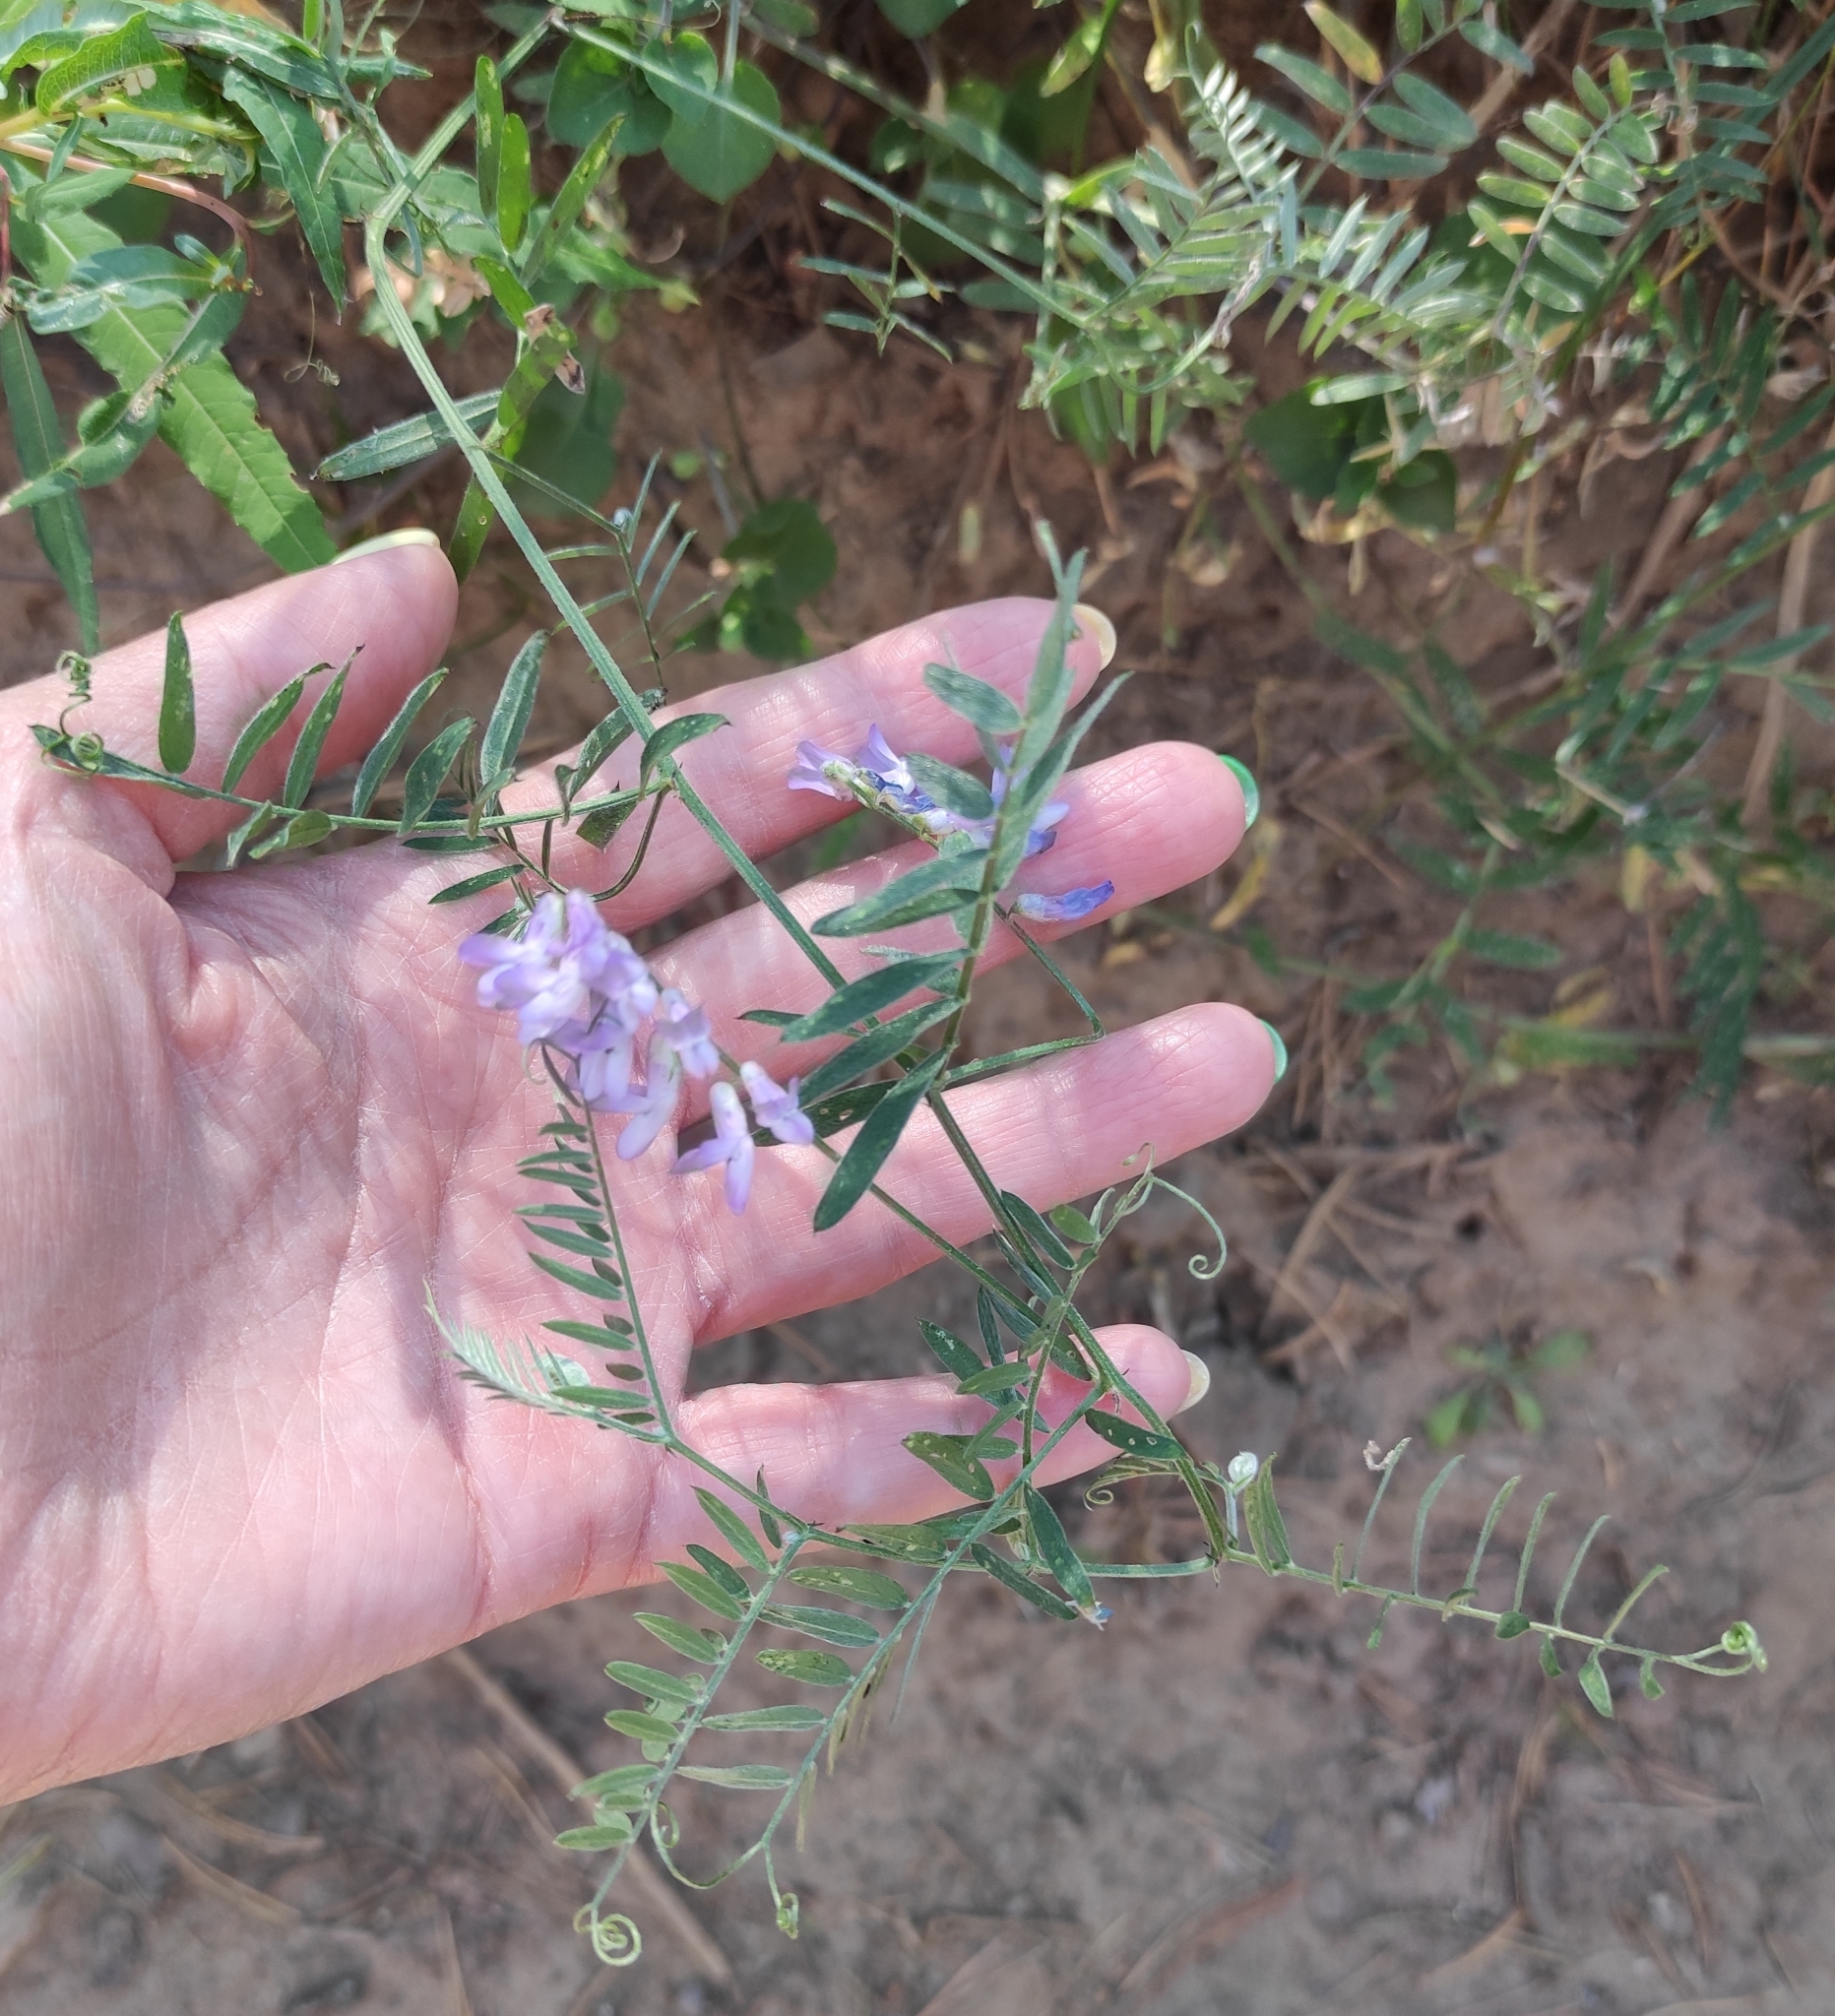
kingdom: Plantae
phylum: Tracheophyta
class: Magnoliopsida
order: Fabales
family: Fabaceae
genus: Vicia
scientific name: Vicia cracca
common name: Bird vetch
